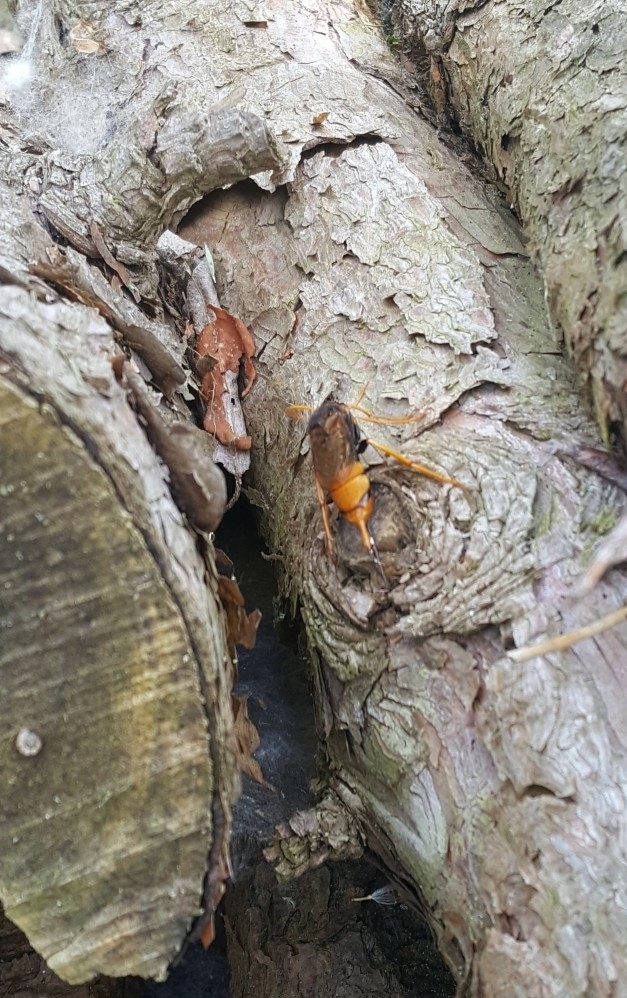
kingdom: Animalia
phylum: Arthropoda
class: Insecta
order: Hymenoptera
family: Siricidae
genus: Urocerus
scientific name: Urocerus gigas
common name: Giant woodwasp
